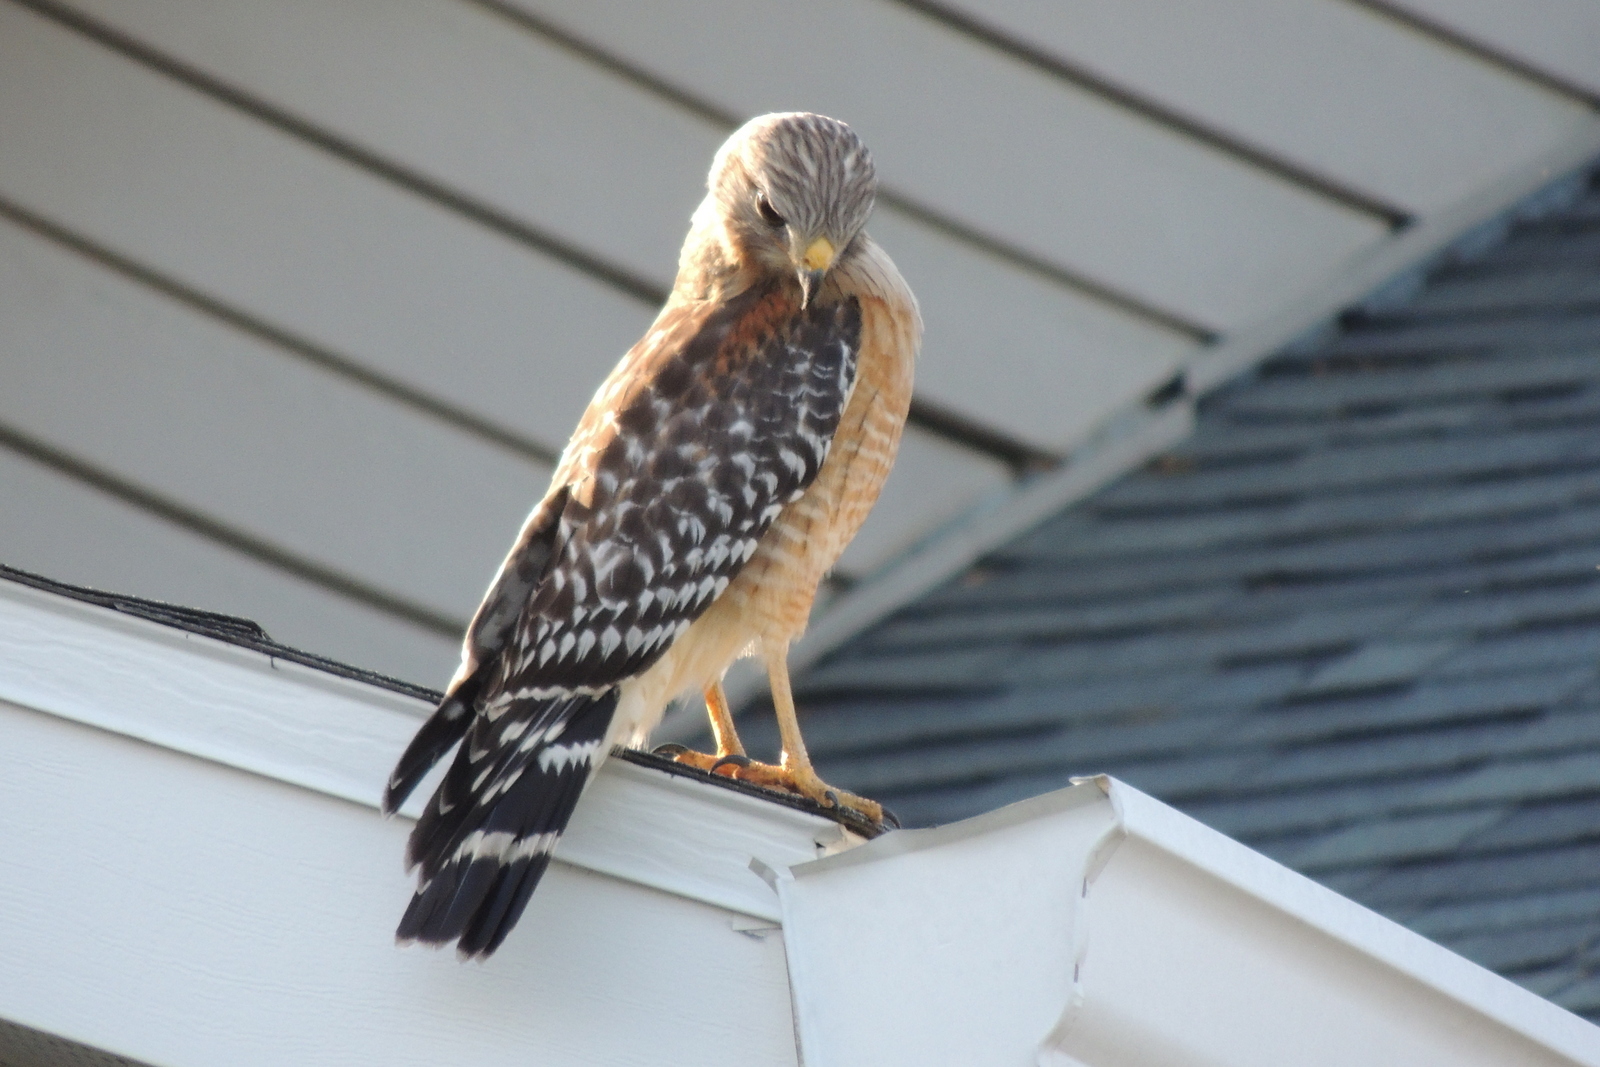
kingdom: Animalia
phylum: Chordata
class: Aves
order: Accipitriformes
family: Accipitridae
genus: Buteo
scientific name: Buteo lineatus
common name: Red-shouldered hawk
